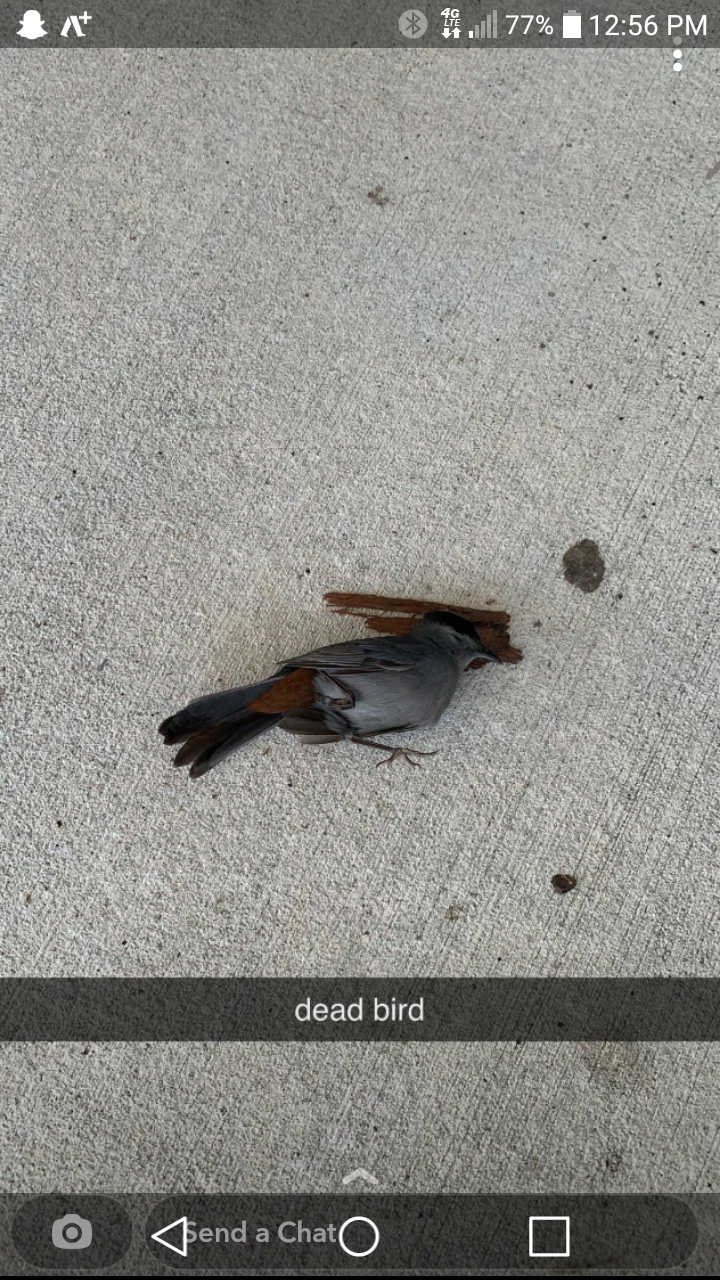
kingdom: Animalia
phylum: Chordata
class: Aves
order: Passeriformes
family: Mimidae
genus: Dumetella
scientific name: Dumetella carolinensis
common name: Gray catbird
